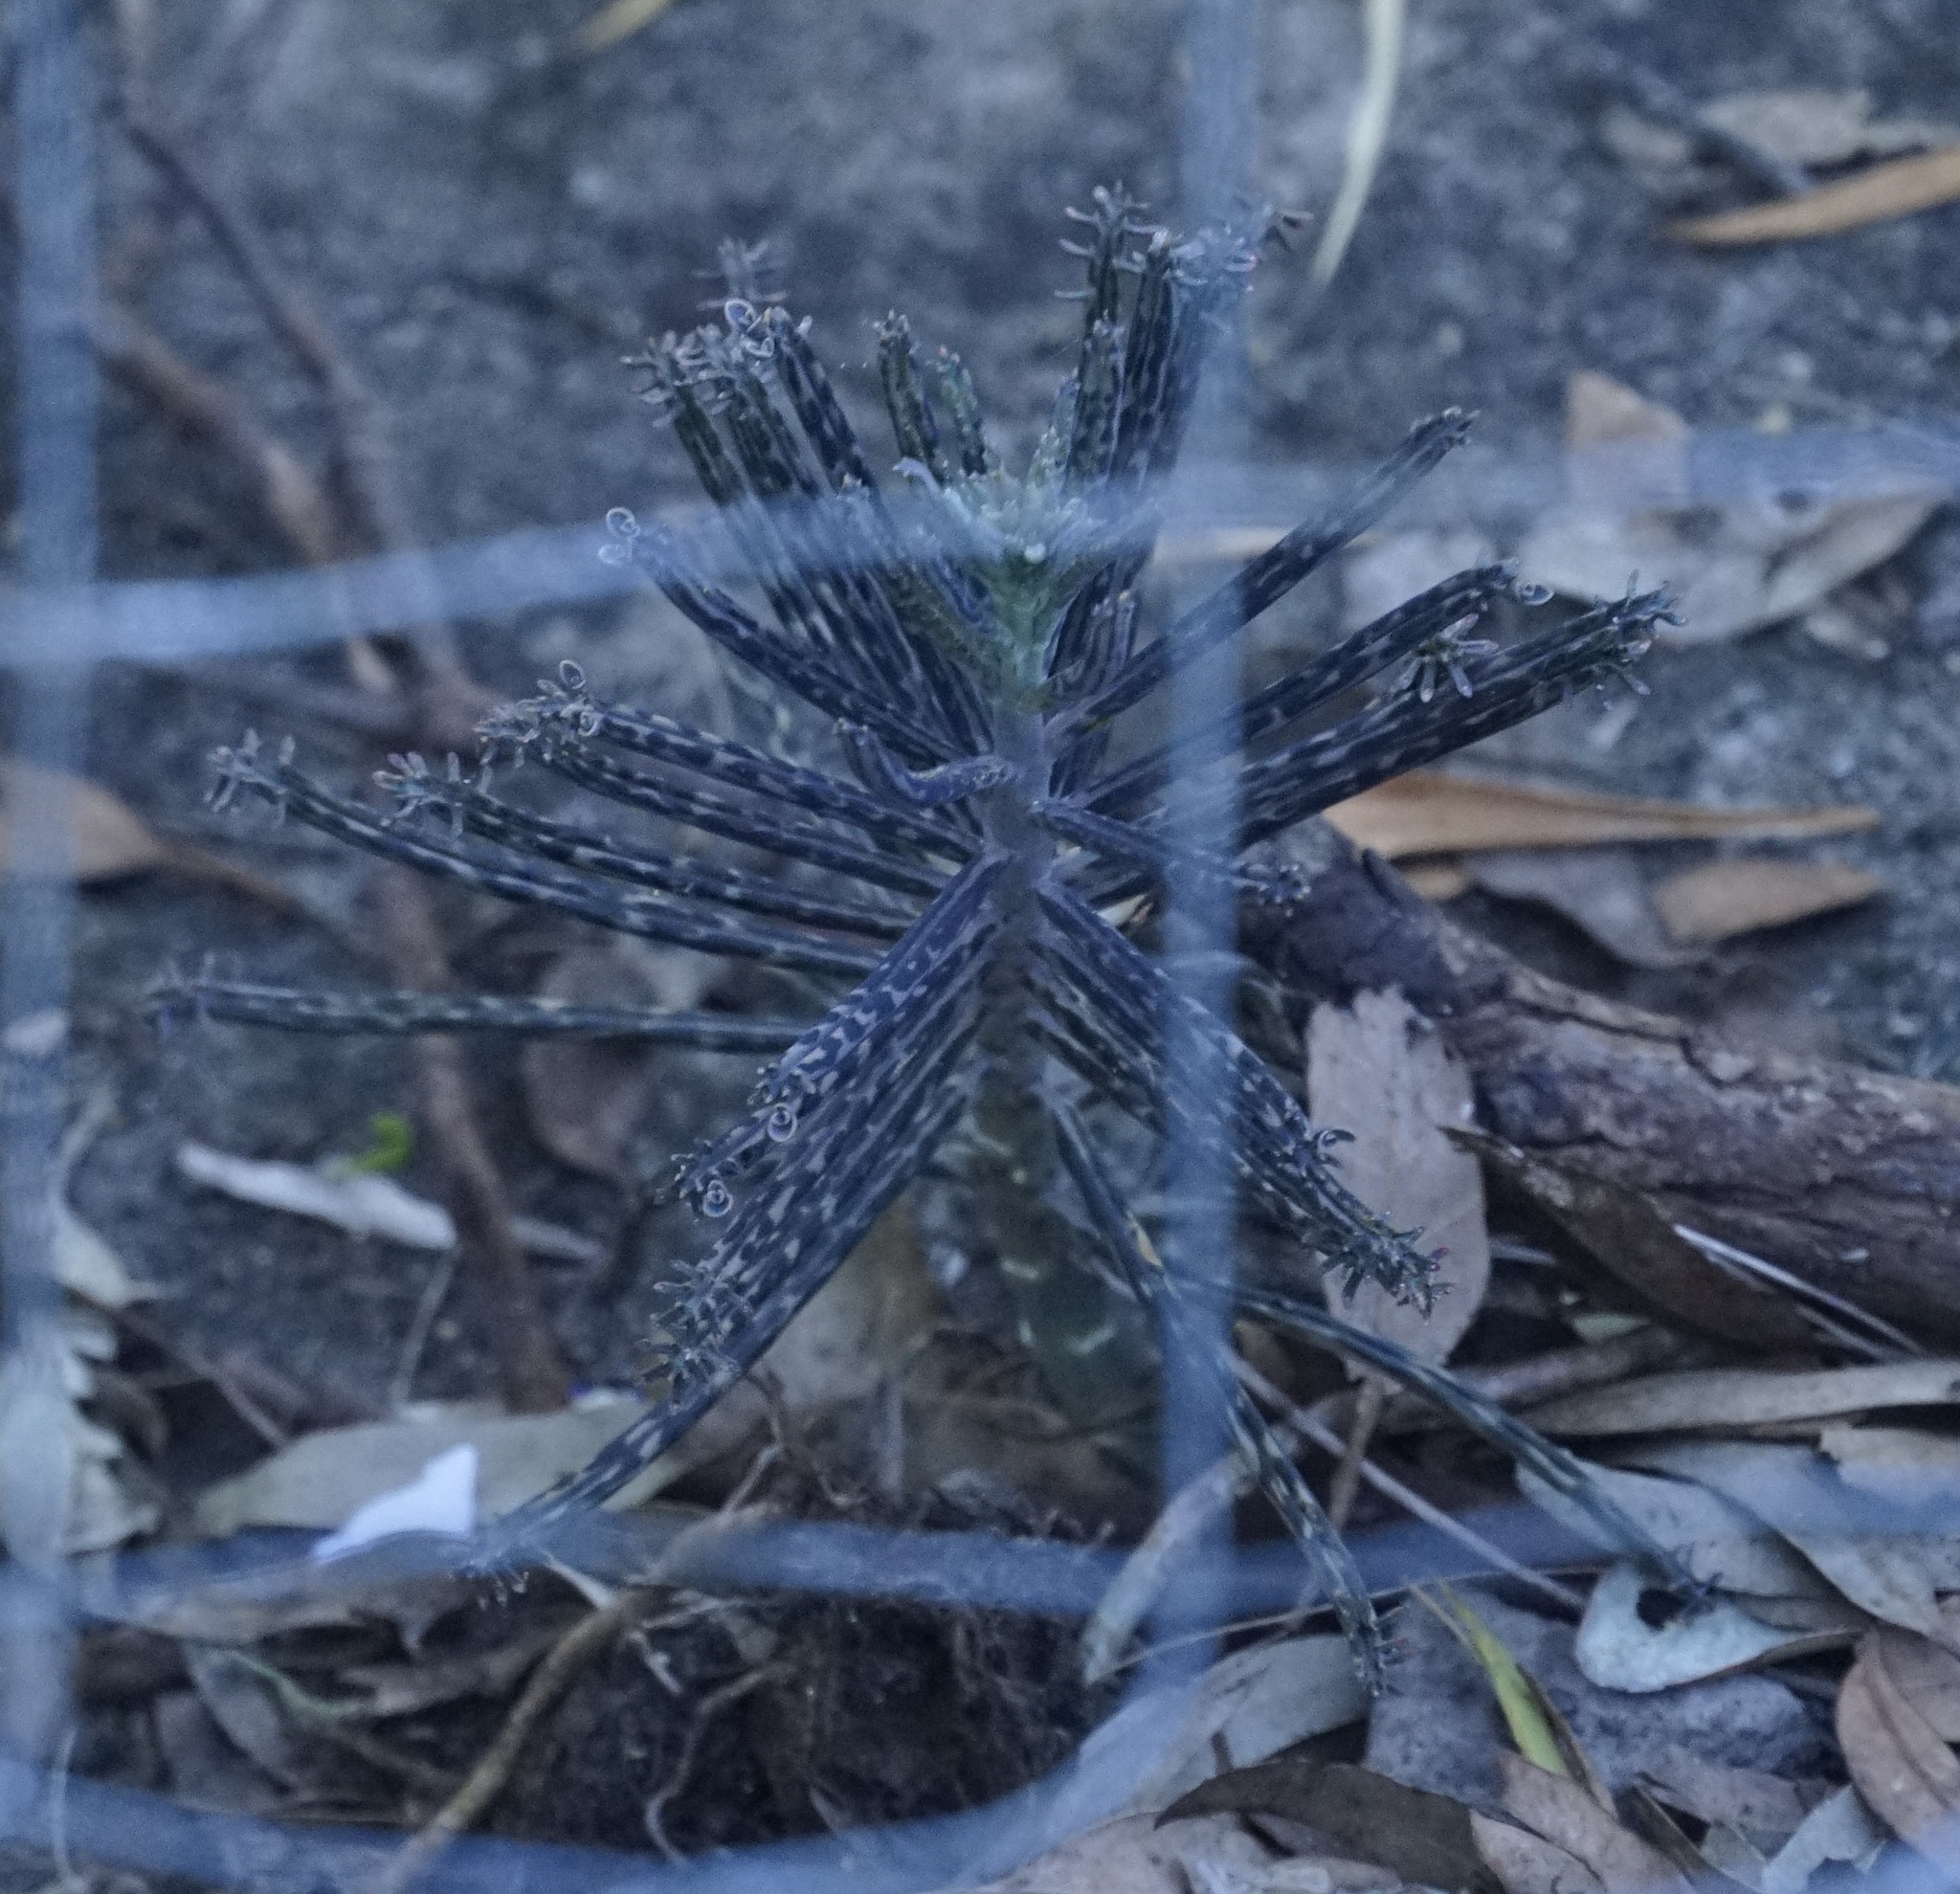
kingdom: Plantae
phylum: Tracheophyta
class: Magnoliopsida
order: Saxifragales
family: Crassulaceae
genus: Kalanchoe
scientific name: Kalanchoe delagoensis
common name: Chandelier plant
